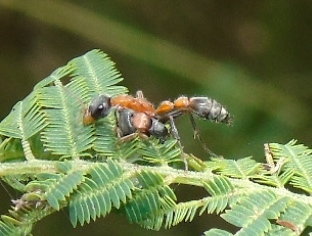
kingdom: Animalia
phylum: Arthropoda
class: Insecta
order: Hymenoptera
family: Formicidae
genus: Pseudomyrmex
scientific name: Pseudomyrmex gracilis
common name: Graceful twig ant
